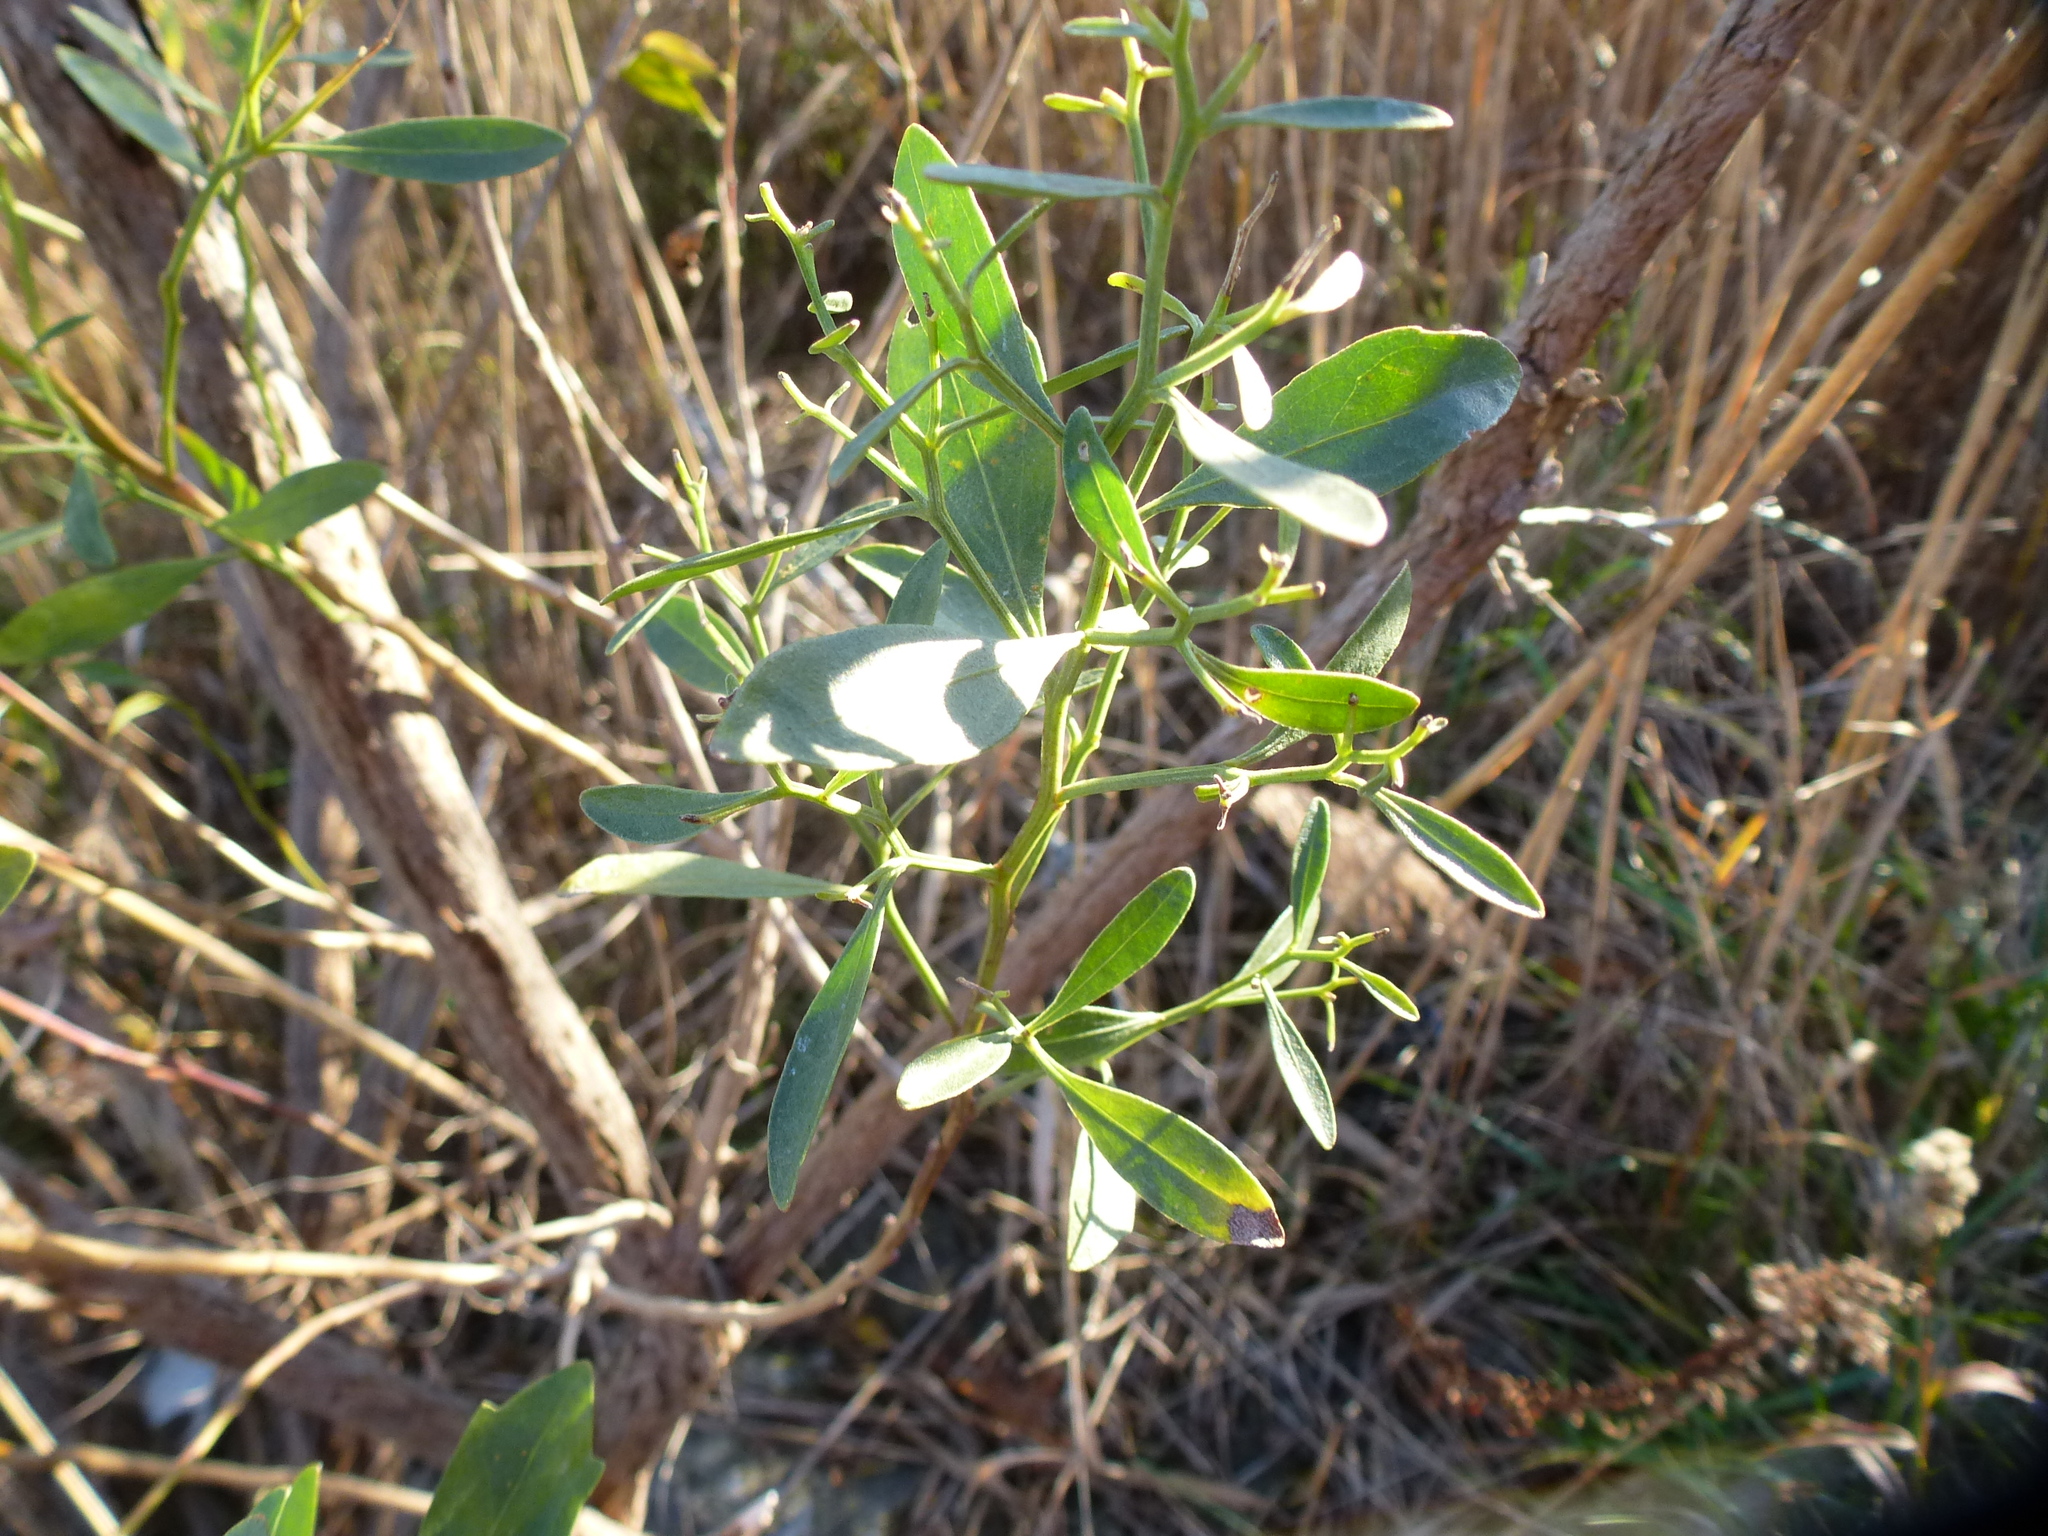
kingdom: Plantae
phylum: Tracheophyta
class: Magnoliopsida
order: Asterales
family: Asteraceae
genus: Baccharis
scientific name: Baccharis halimifolia
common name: Eastern baccharis
